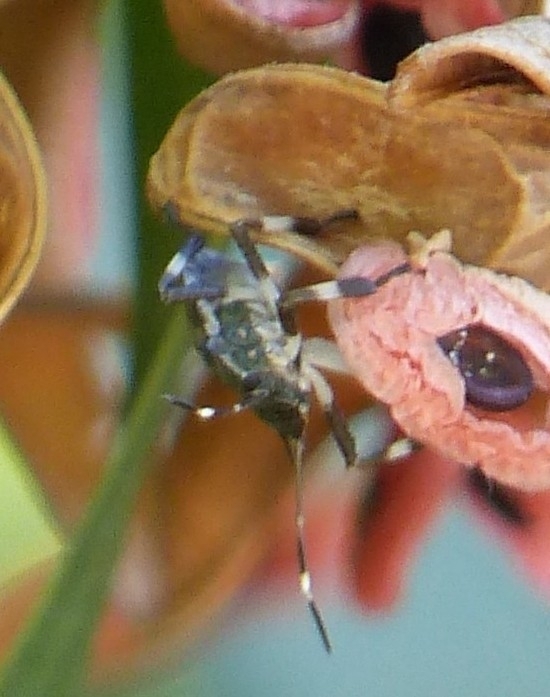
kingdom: Animalia
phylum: Arthropoda
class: Insecta
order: Hemiptera
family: Pentatomidae
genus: Halyomorpha
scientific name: Halyomorpha halys
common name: Brown marmorated stink bug
